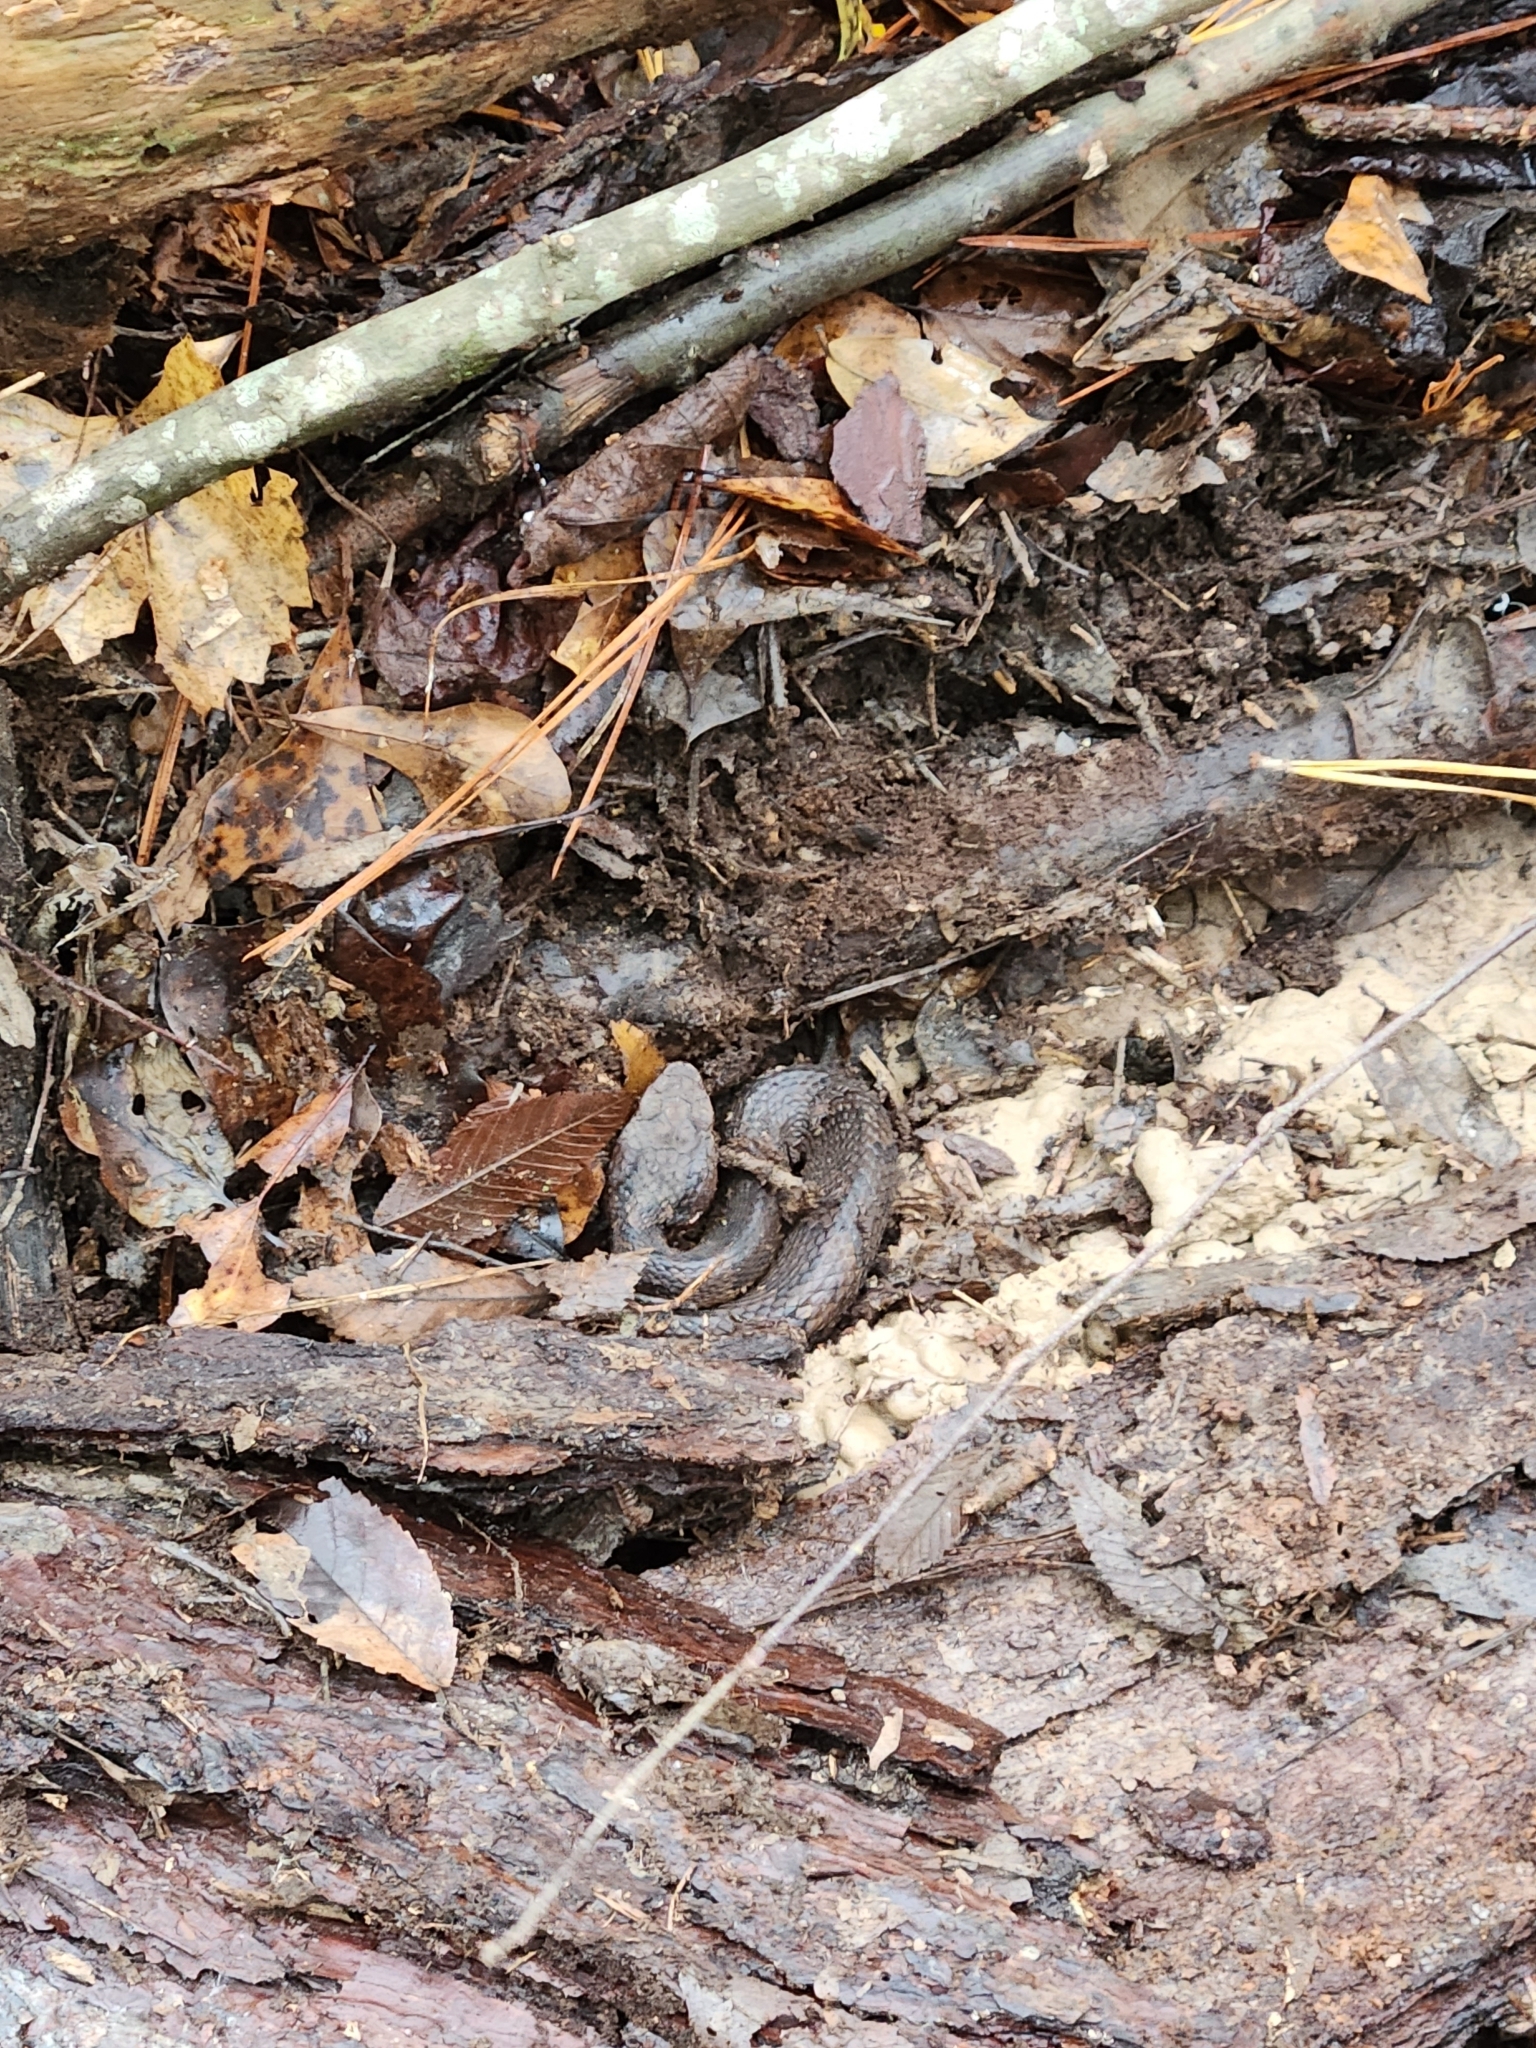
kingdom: Animalia
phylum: Chordata
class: Squamata
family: Viperidae
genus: Agkistrodon
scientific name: Agkistrodon piscivorus
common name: Cottonmouth
